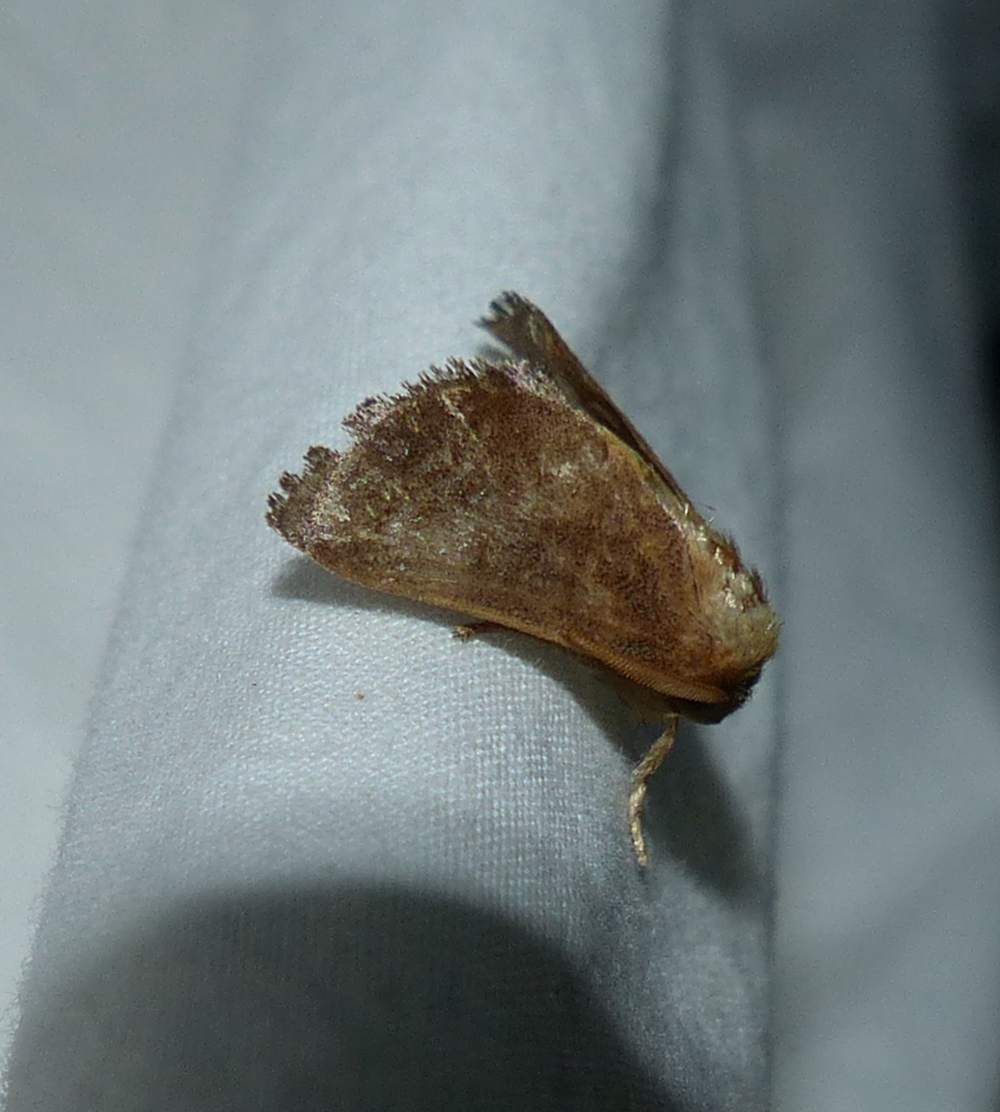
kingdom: Animalia
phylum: Arthropoda
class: Insecta
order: Lepidoptera
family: Limacodidae
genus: Isa
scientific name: Isa textula
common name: Crowned slug moth
